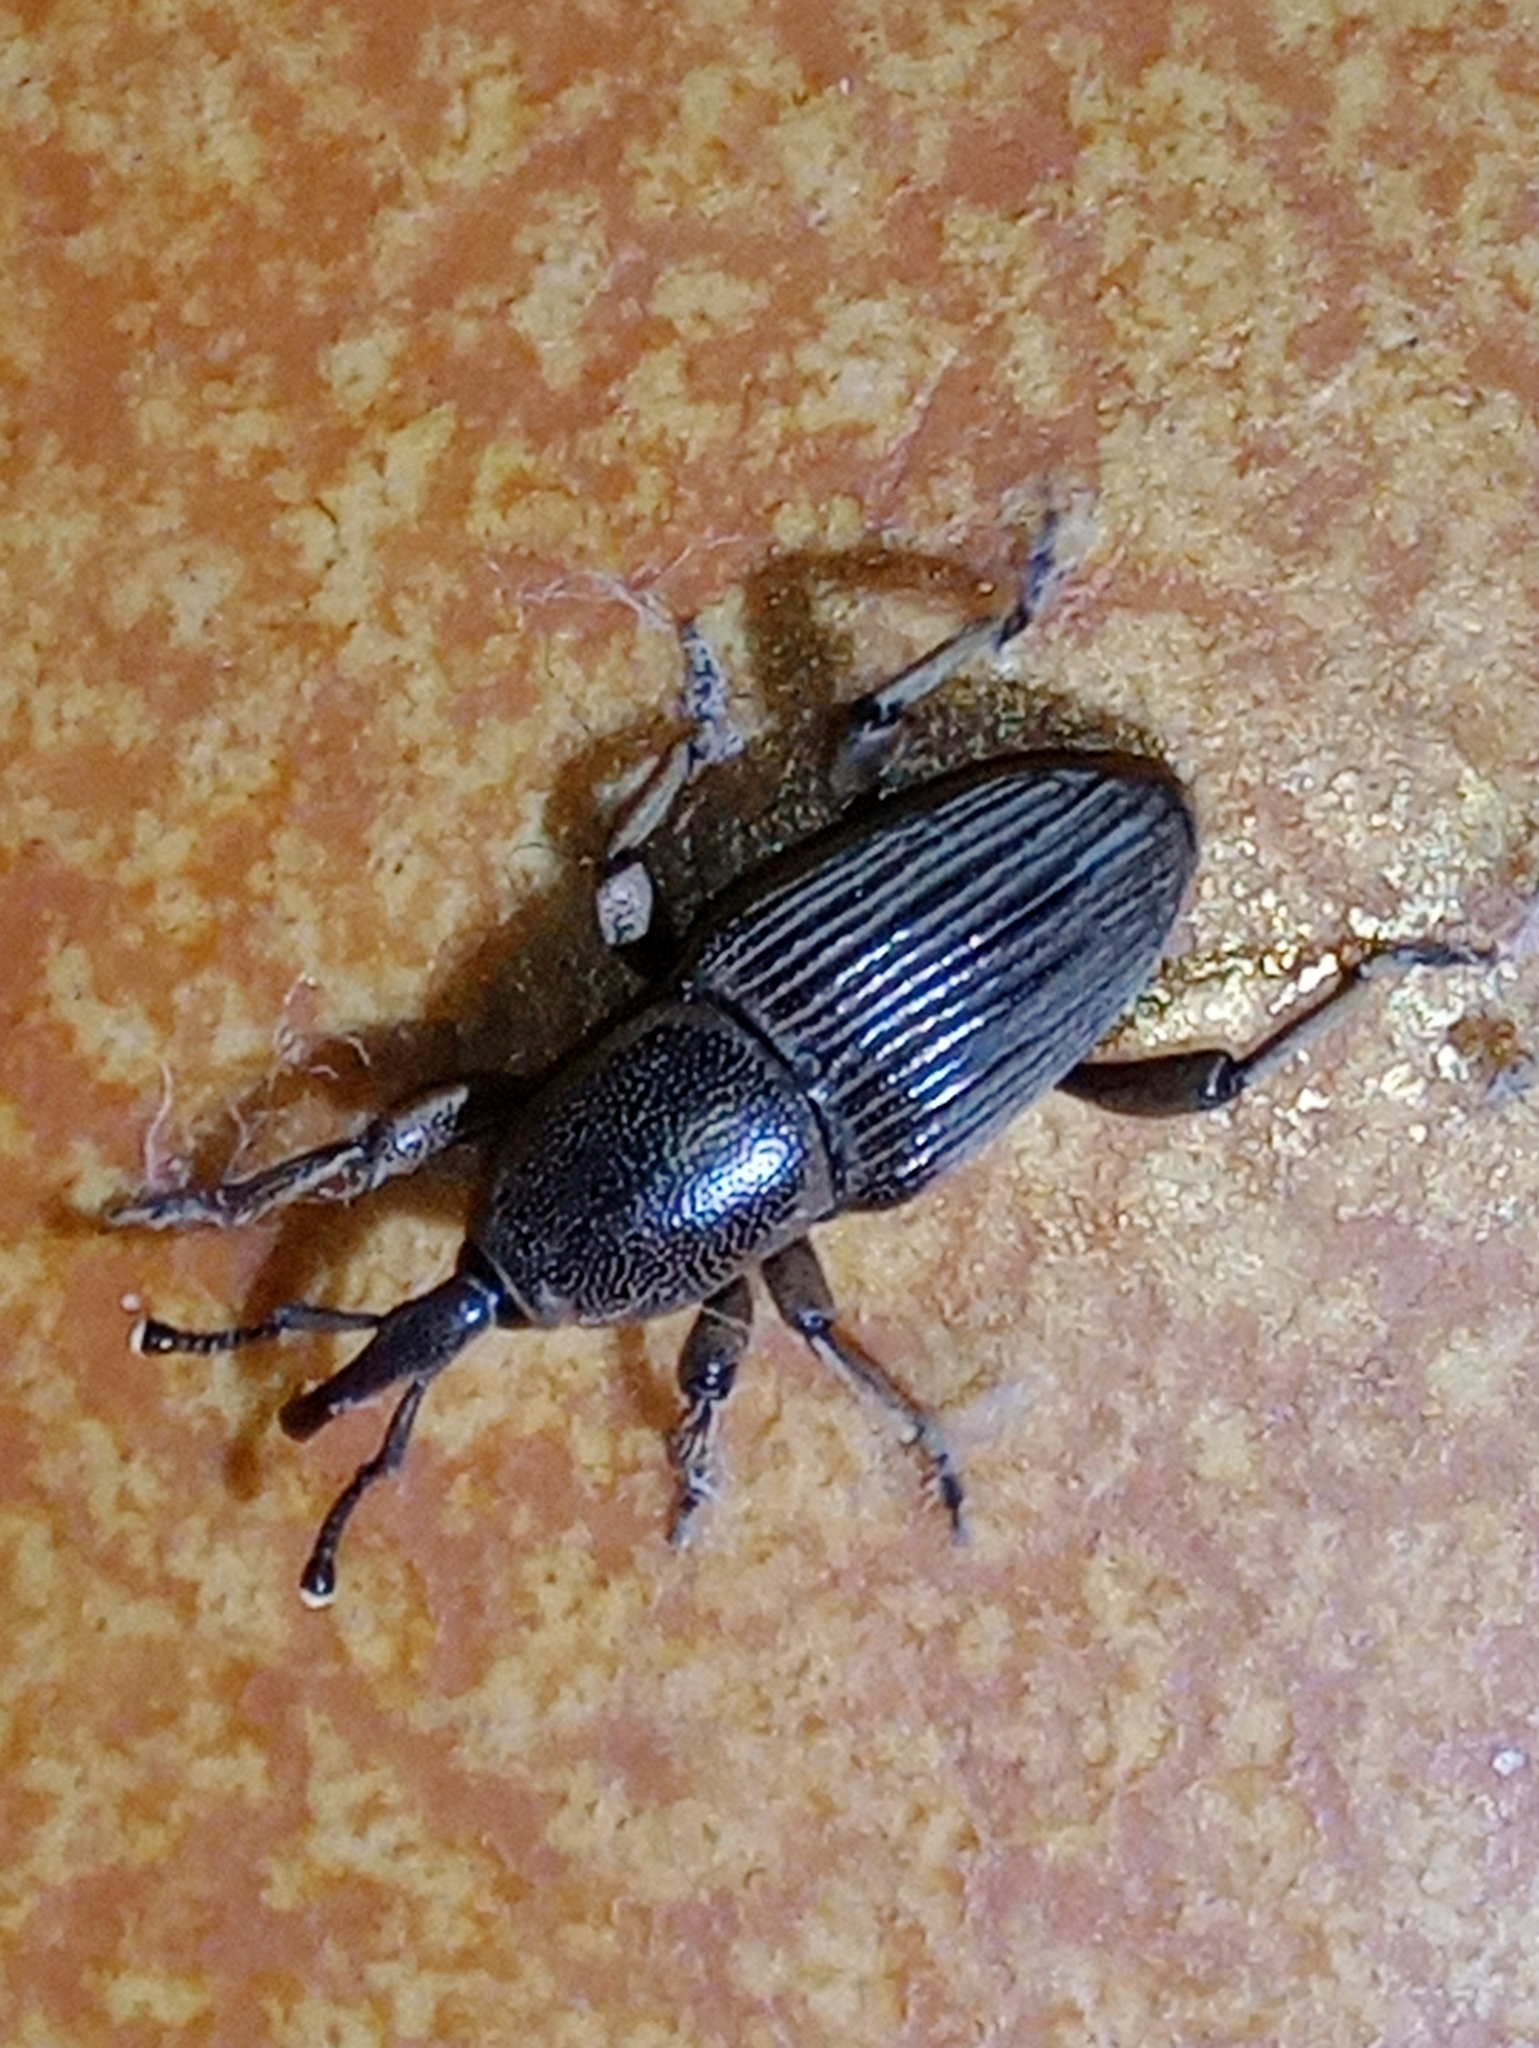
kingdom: Animalia
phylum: Arthropoda
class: Insecta
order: Coleoptera
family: Dryophthoridae
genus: Cosmopolites
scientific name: Cosmopolites sordidus
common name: Palm weevil
